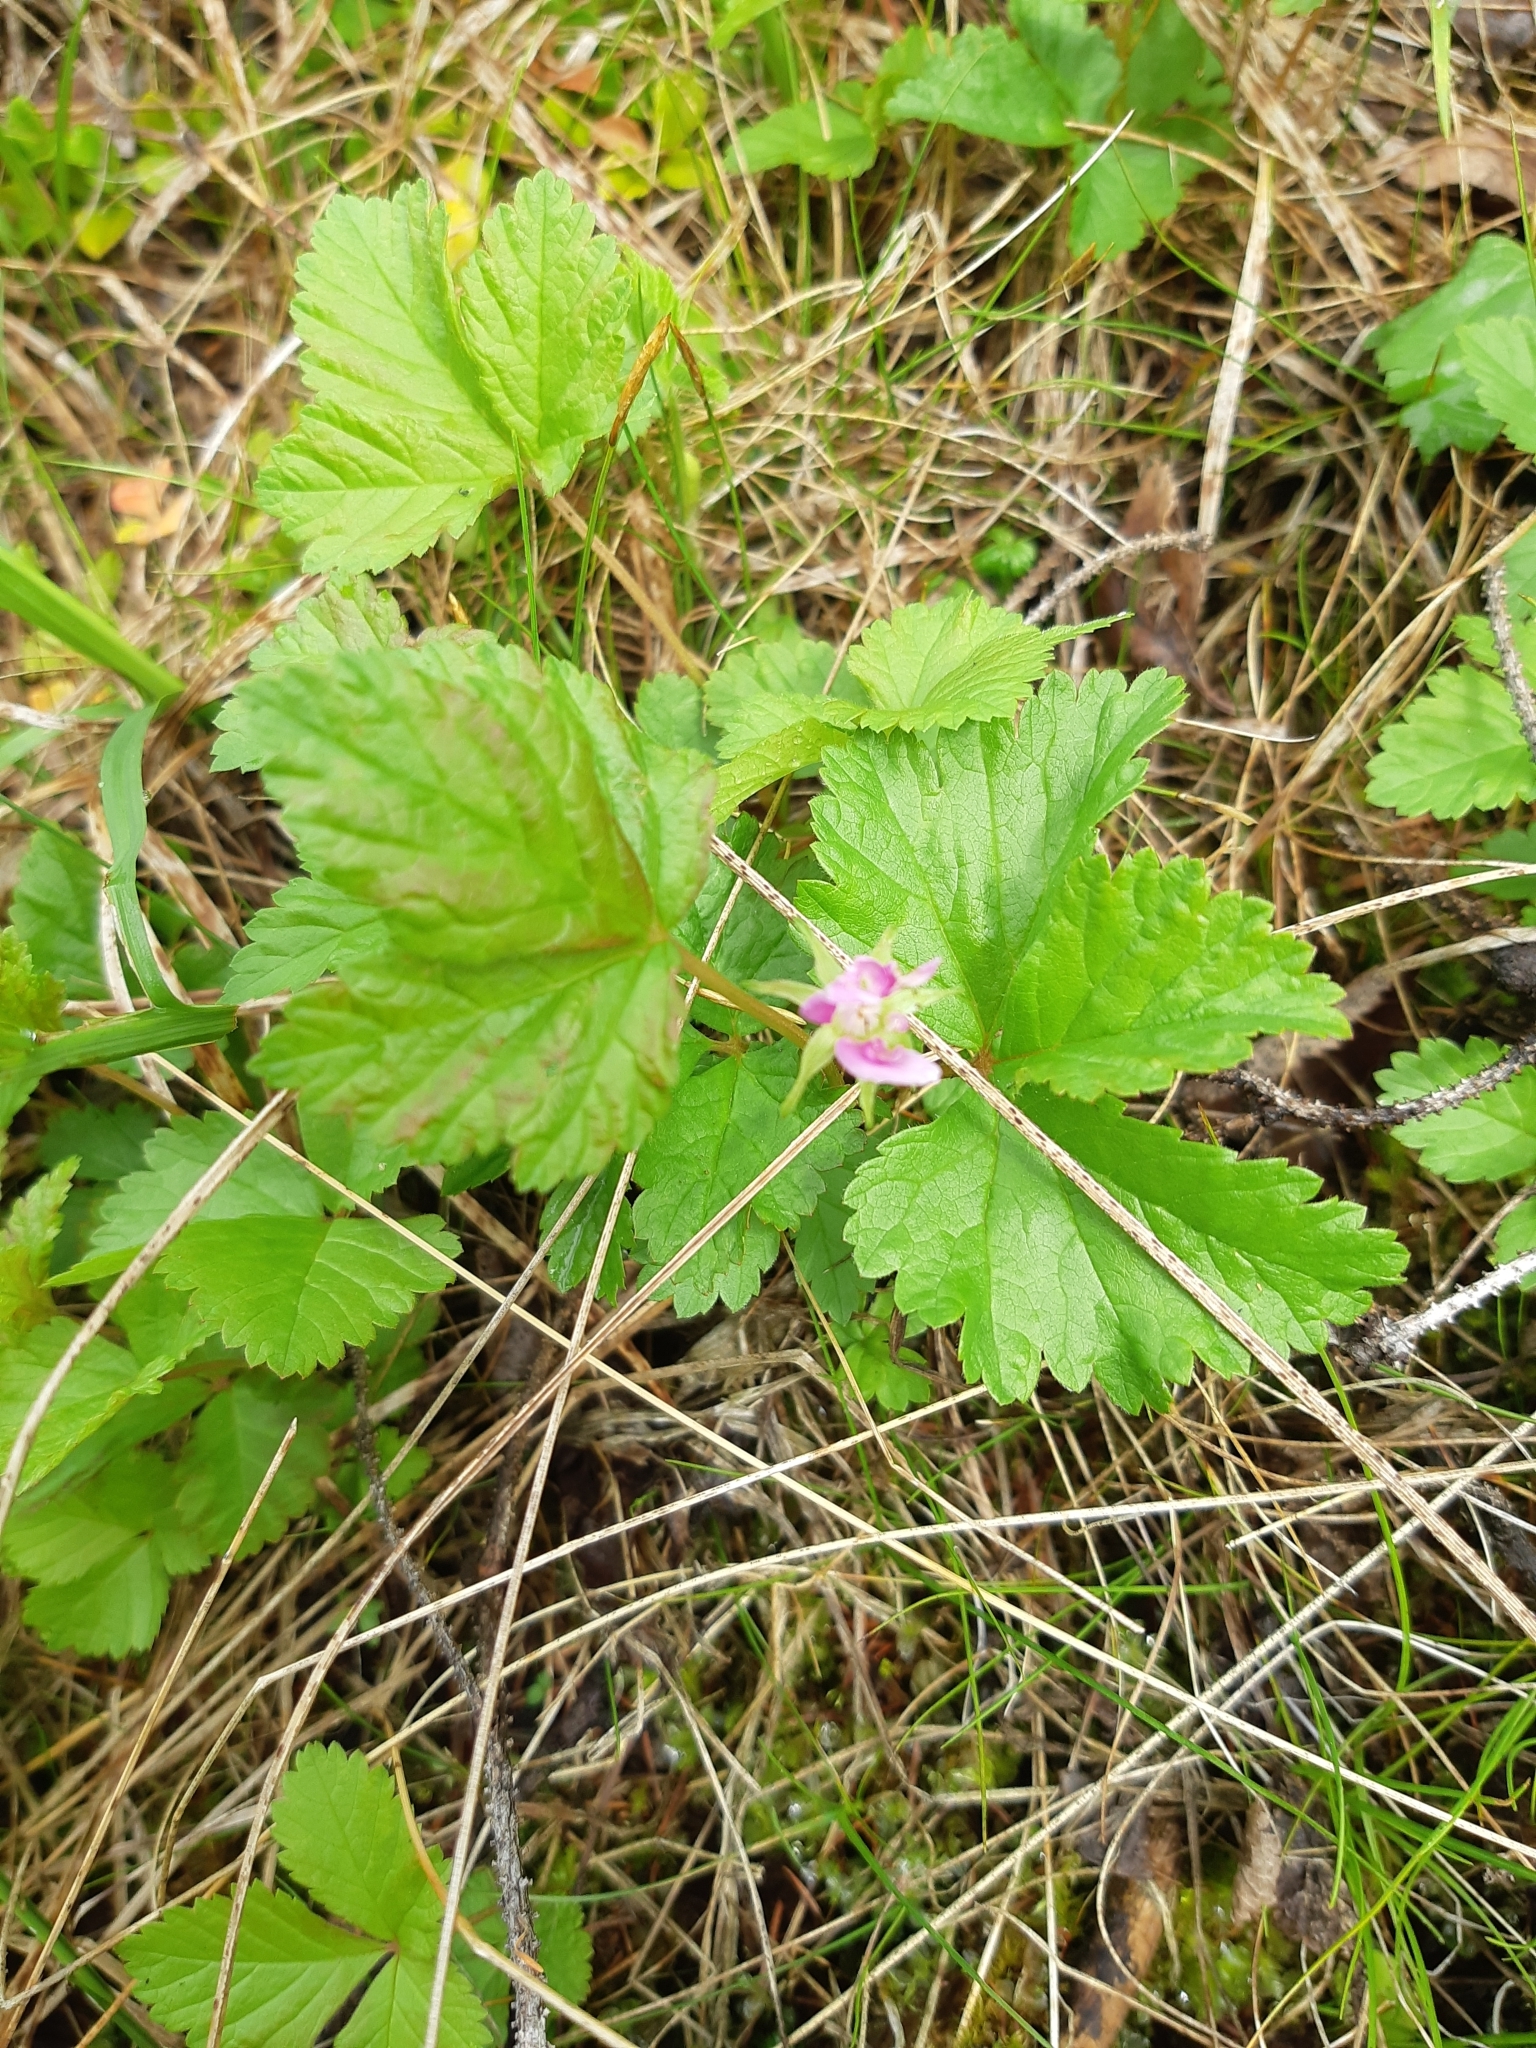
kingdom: Plantae
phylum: Tracheophyta
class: Magnoliopsida
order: Rosales
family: Rosaceae
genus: Rubus
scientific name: Rubus arcticus
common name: Arctic bramble
